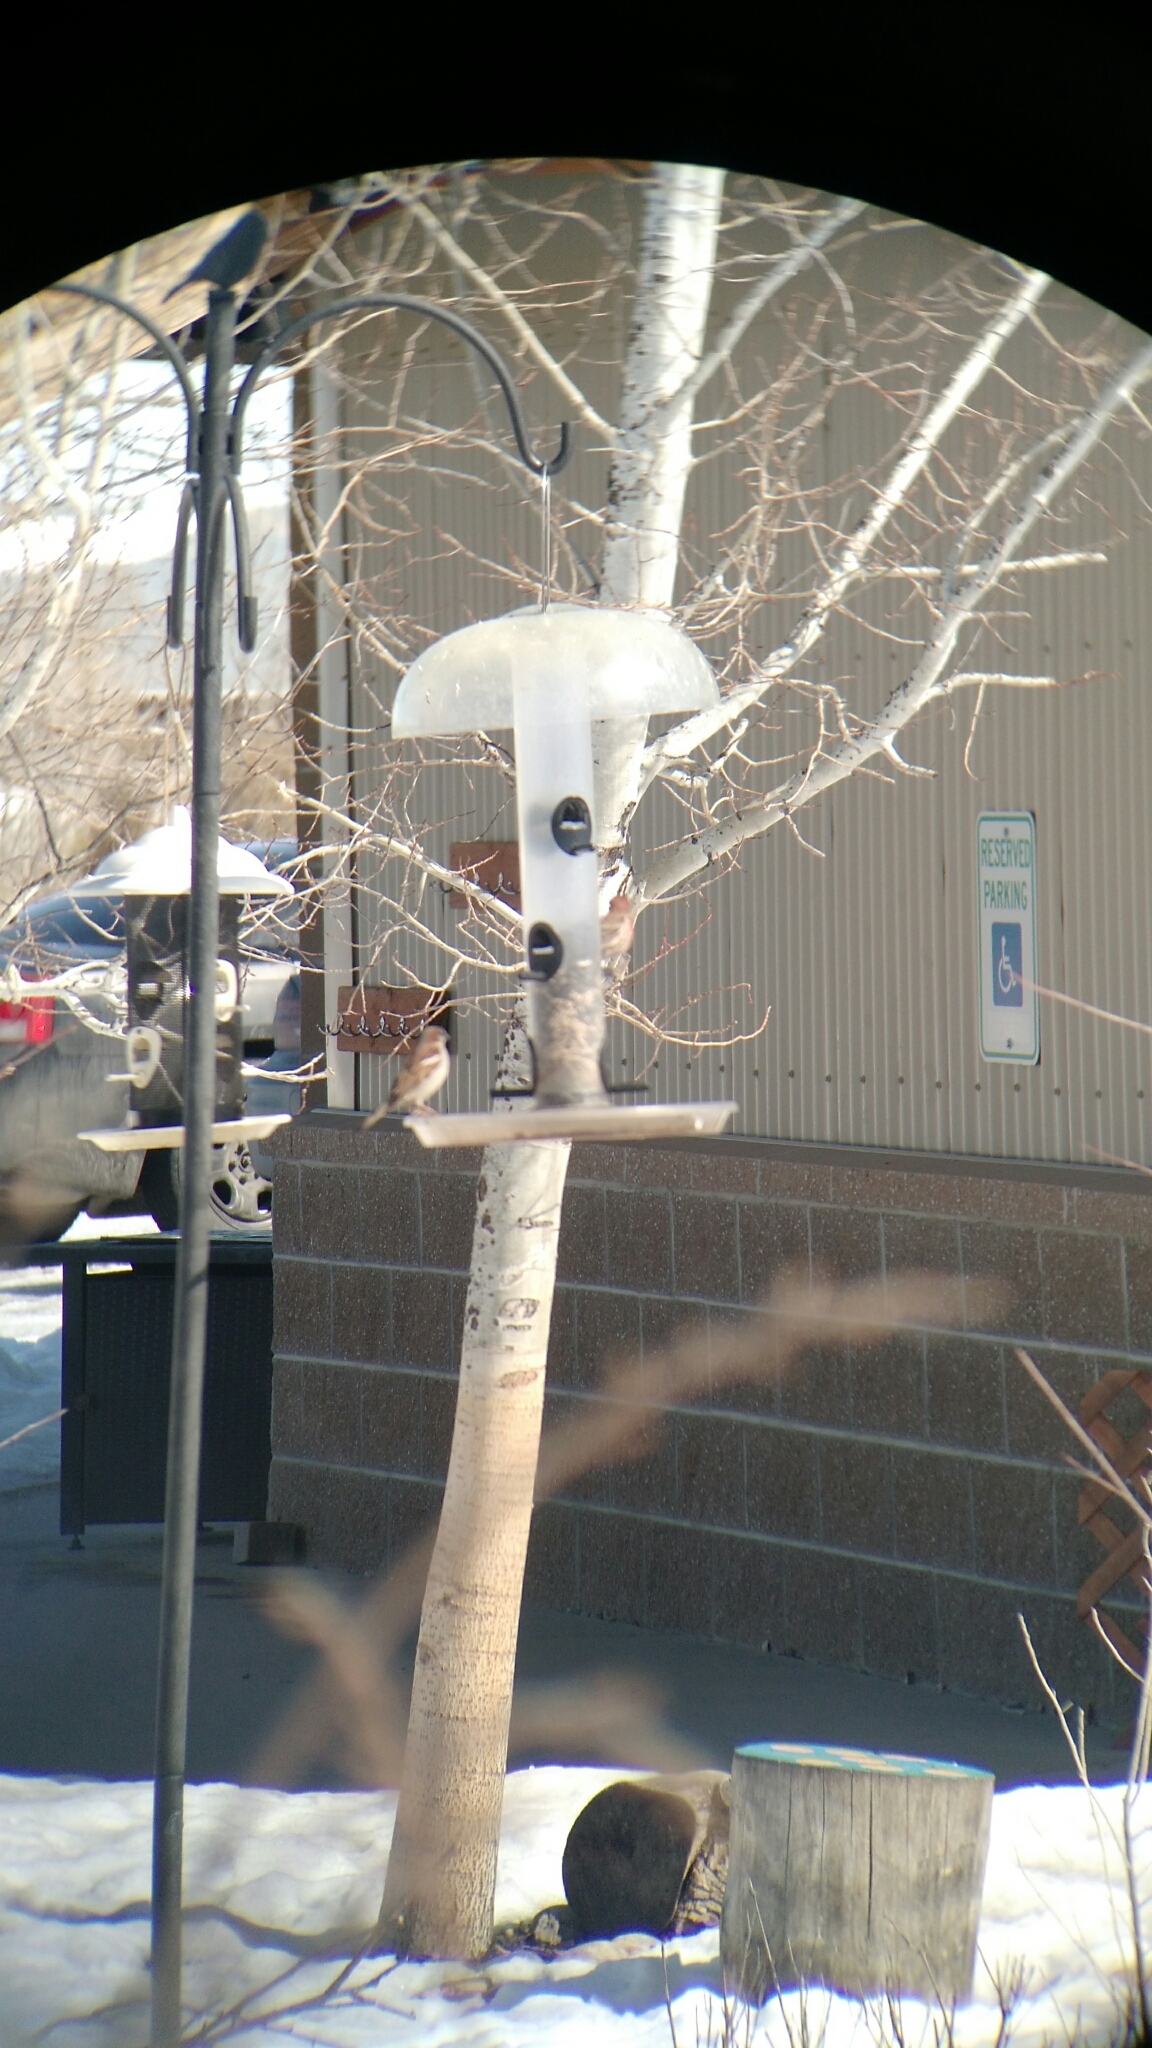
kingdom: Animalia
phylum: Chordata
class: Aves
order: Passeriformes
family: Fringillidae
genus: Haemorhous
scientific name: Haemorhous mexicanus
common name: House finch
